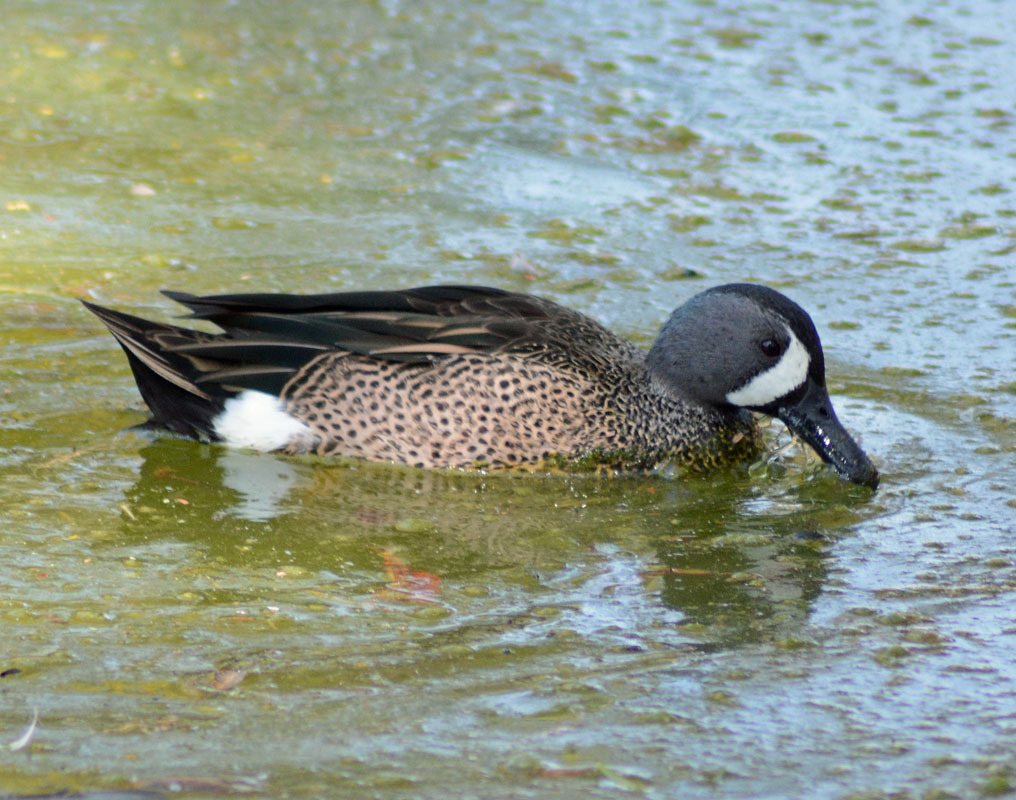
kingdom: Animalia
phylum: Chordata
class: Aves
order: Anseriformes
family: Anatidae
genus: Spatula
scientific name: Spatula discors
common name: Blue-winged teal
